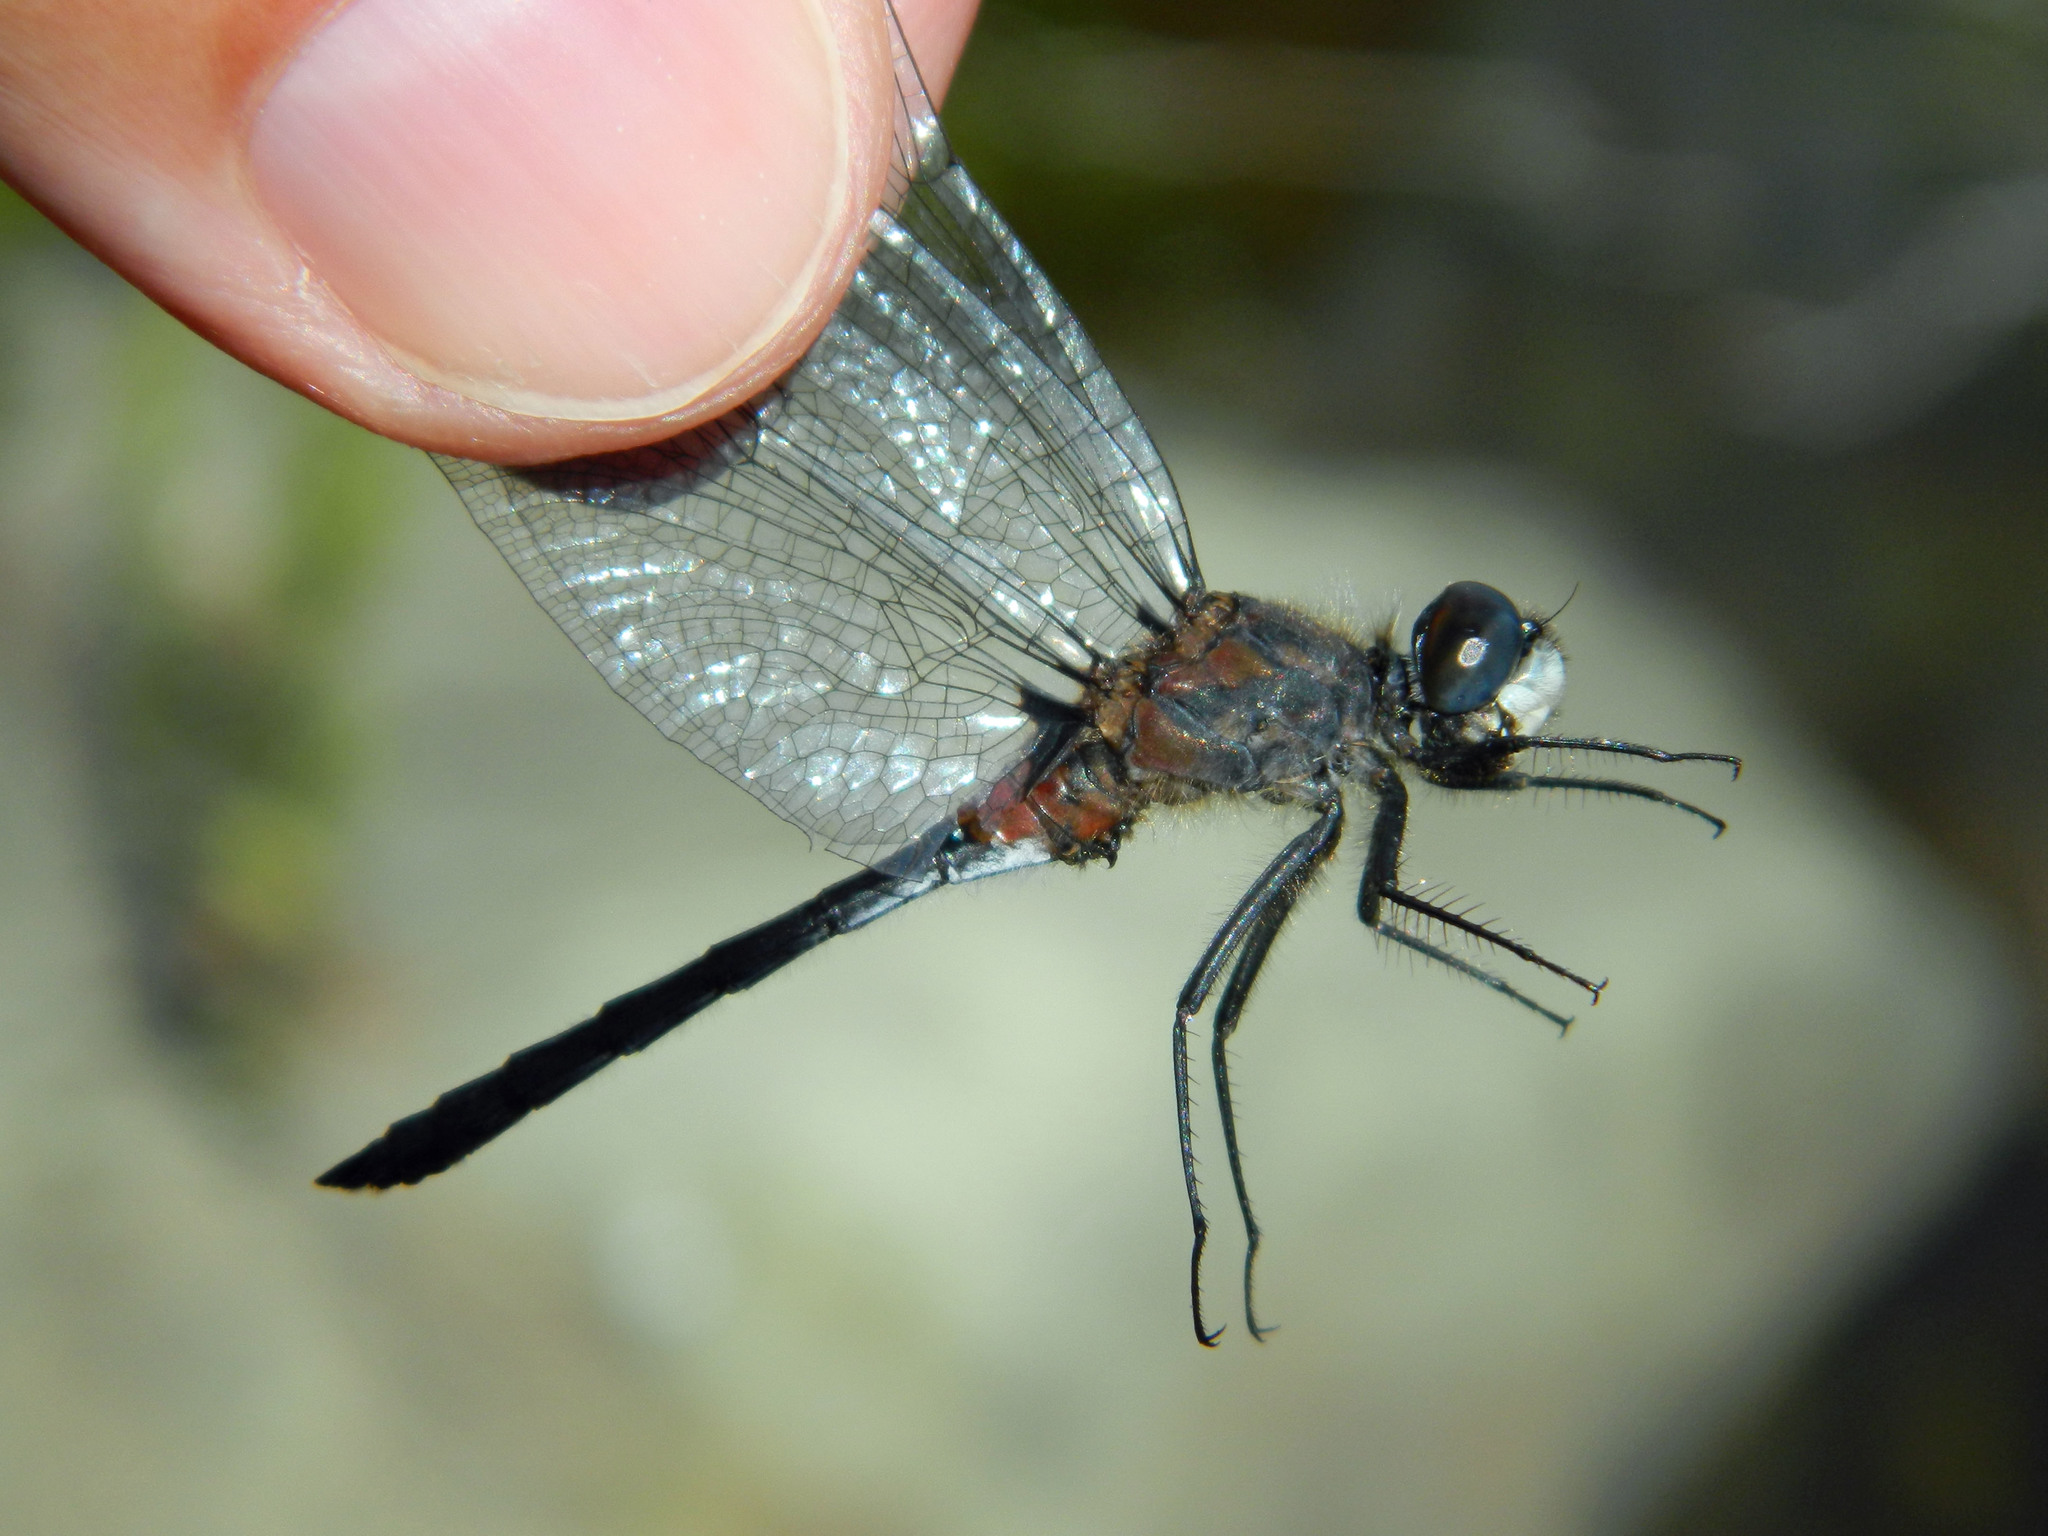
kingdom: Animalia
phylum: Arthropoda
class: Insecta
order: Odonata
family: Libellulidae
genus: Leucorrhinia
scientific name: Leucorrhinia proxima
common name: Belted whiteface
